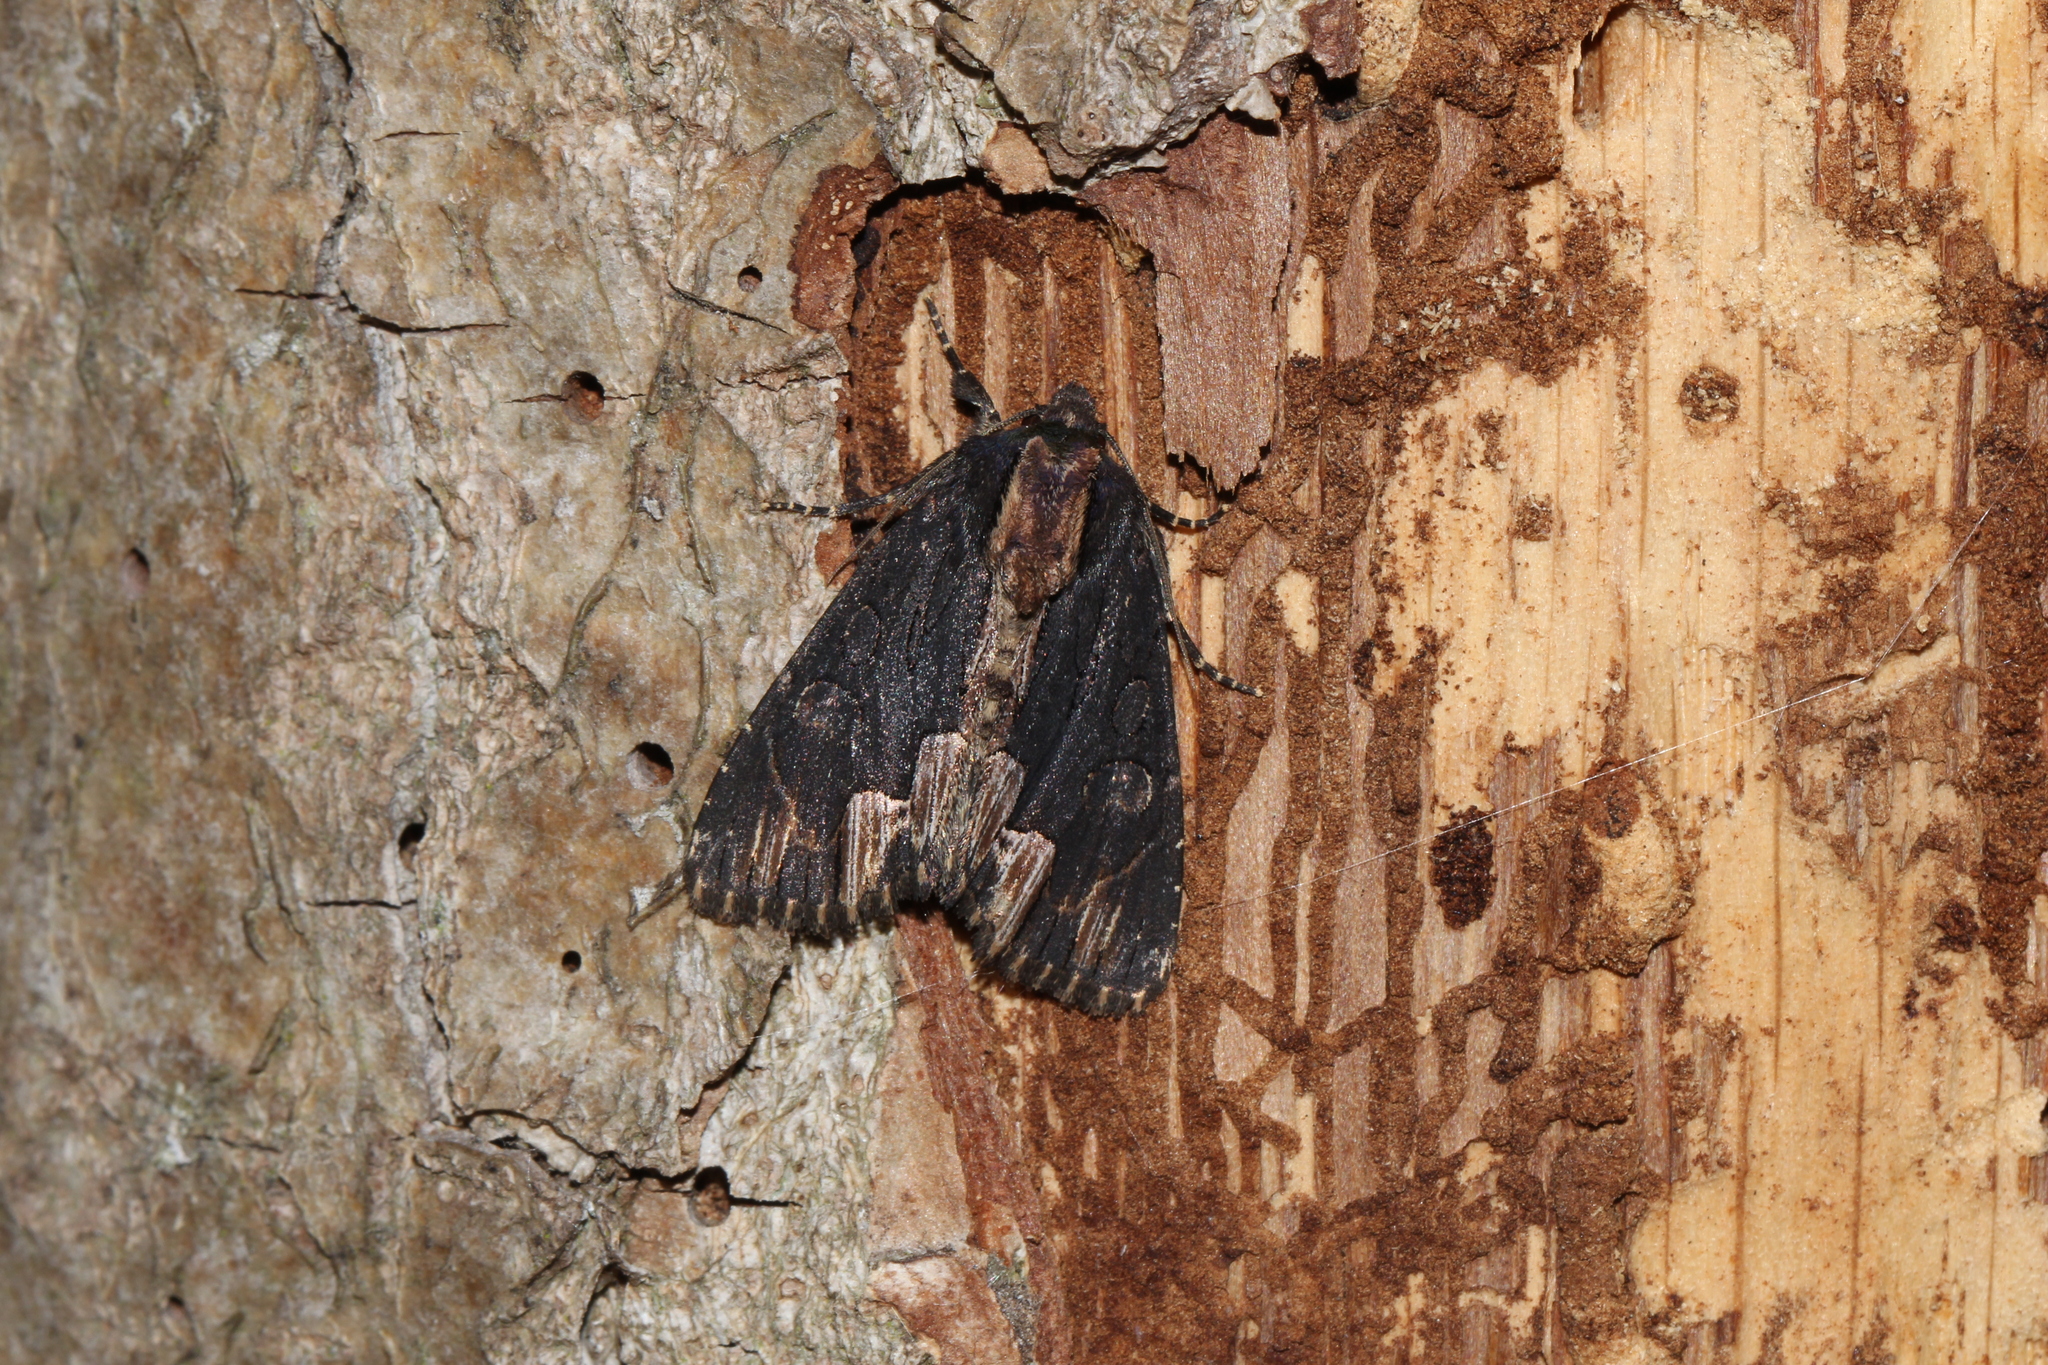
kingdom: Animalia
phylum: Arthropoda
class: Insecta
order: Lepidoptera
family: Noctuidae
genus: Dypterygia
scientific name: Dypterygia scabriuscula
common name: Bird's wing
